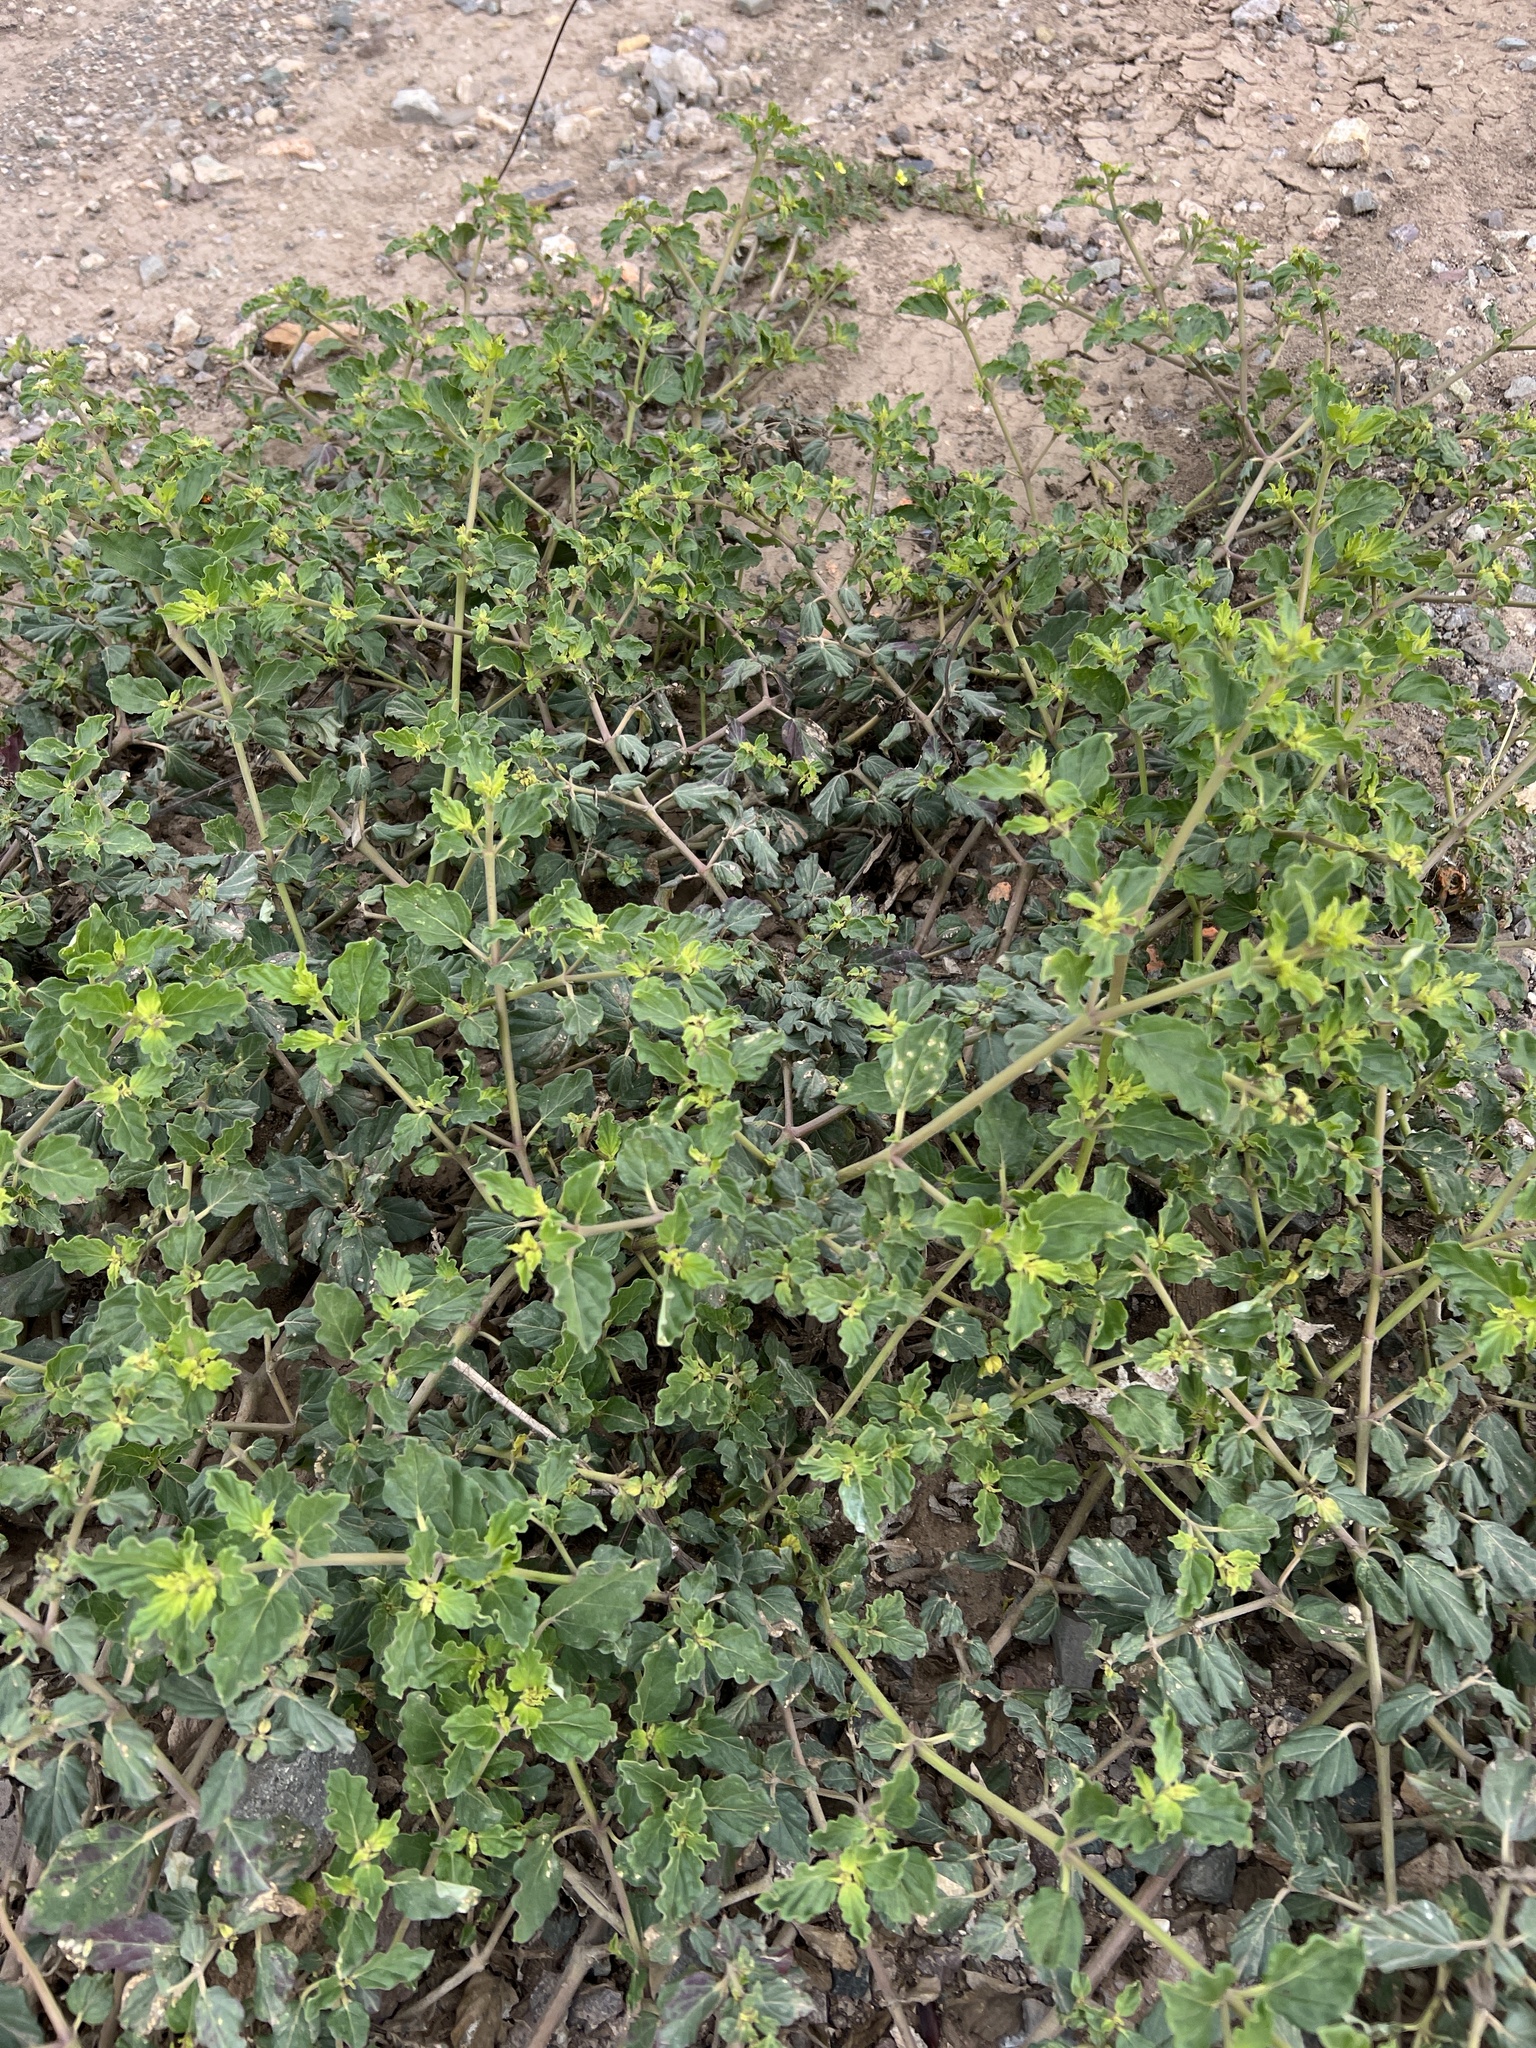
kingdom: Plantae
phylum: Tracheophyta
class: Magnoliopsida
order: Caryophyllales
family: Nyctaginaceae
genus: Boerhavia
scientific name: Boerhavia coccinea
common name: Scarlet spiderling
